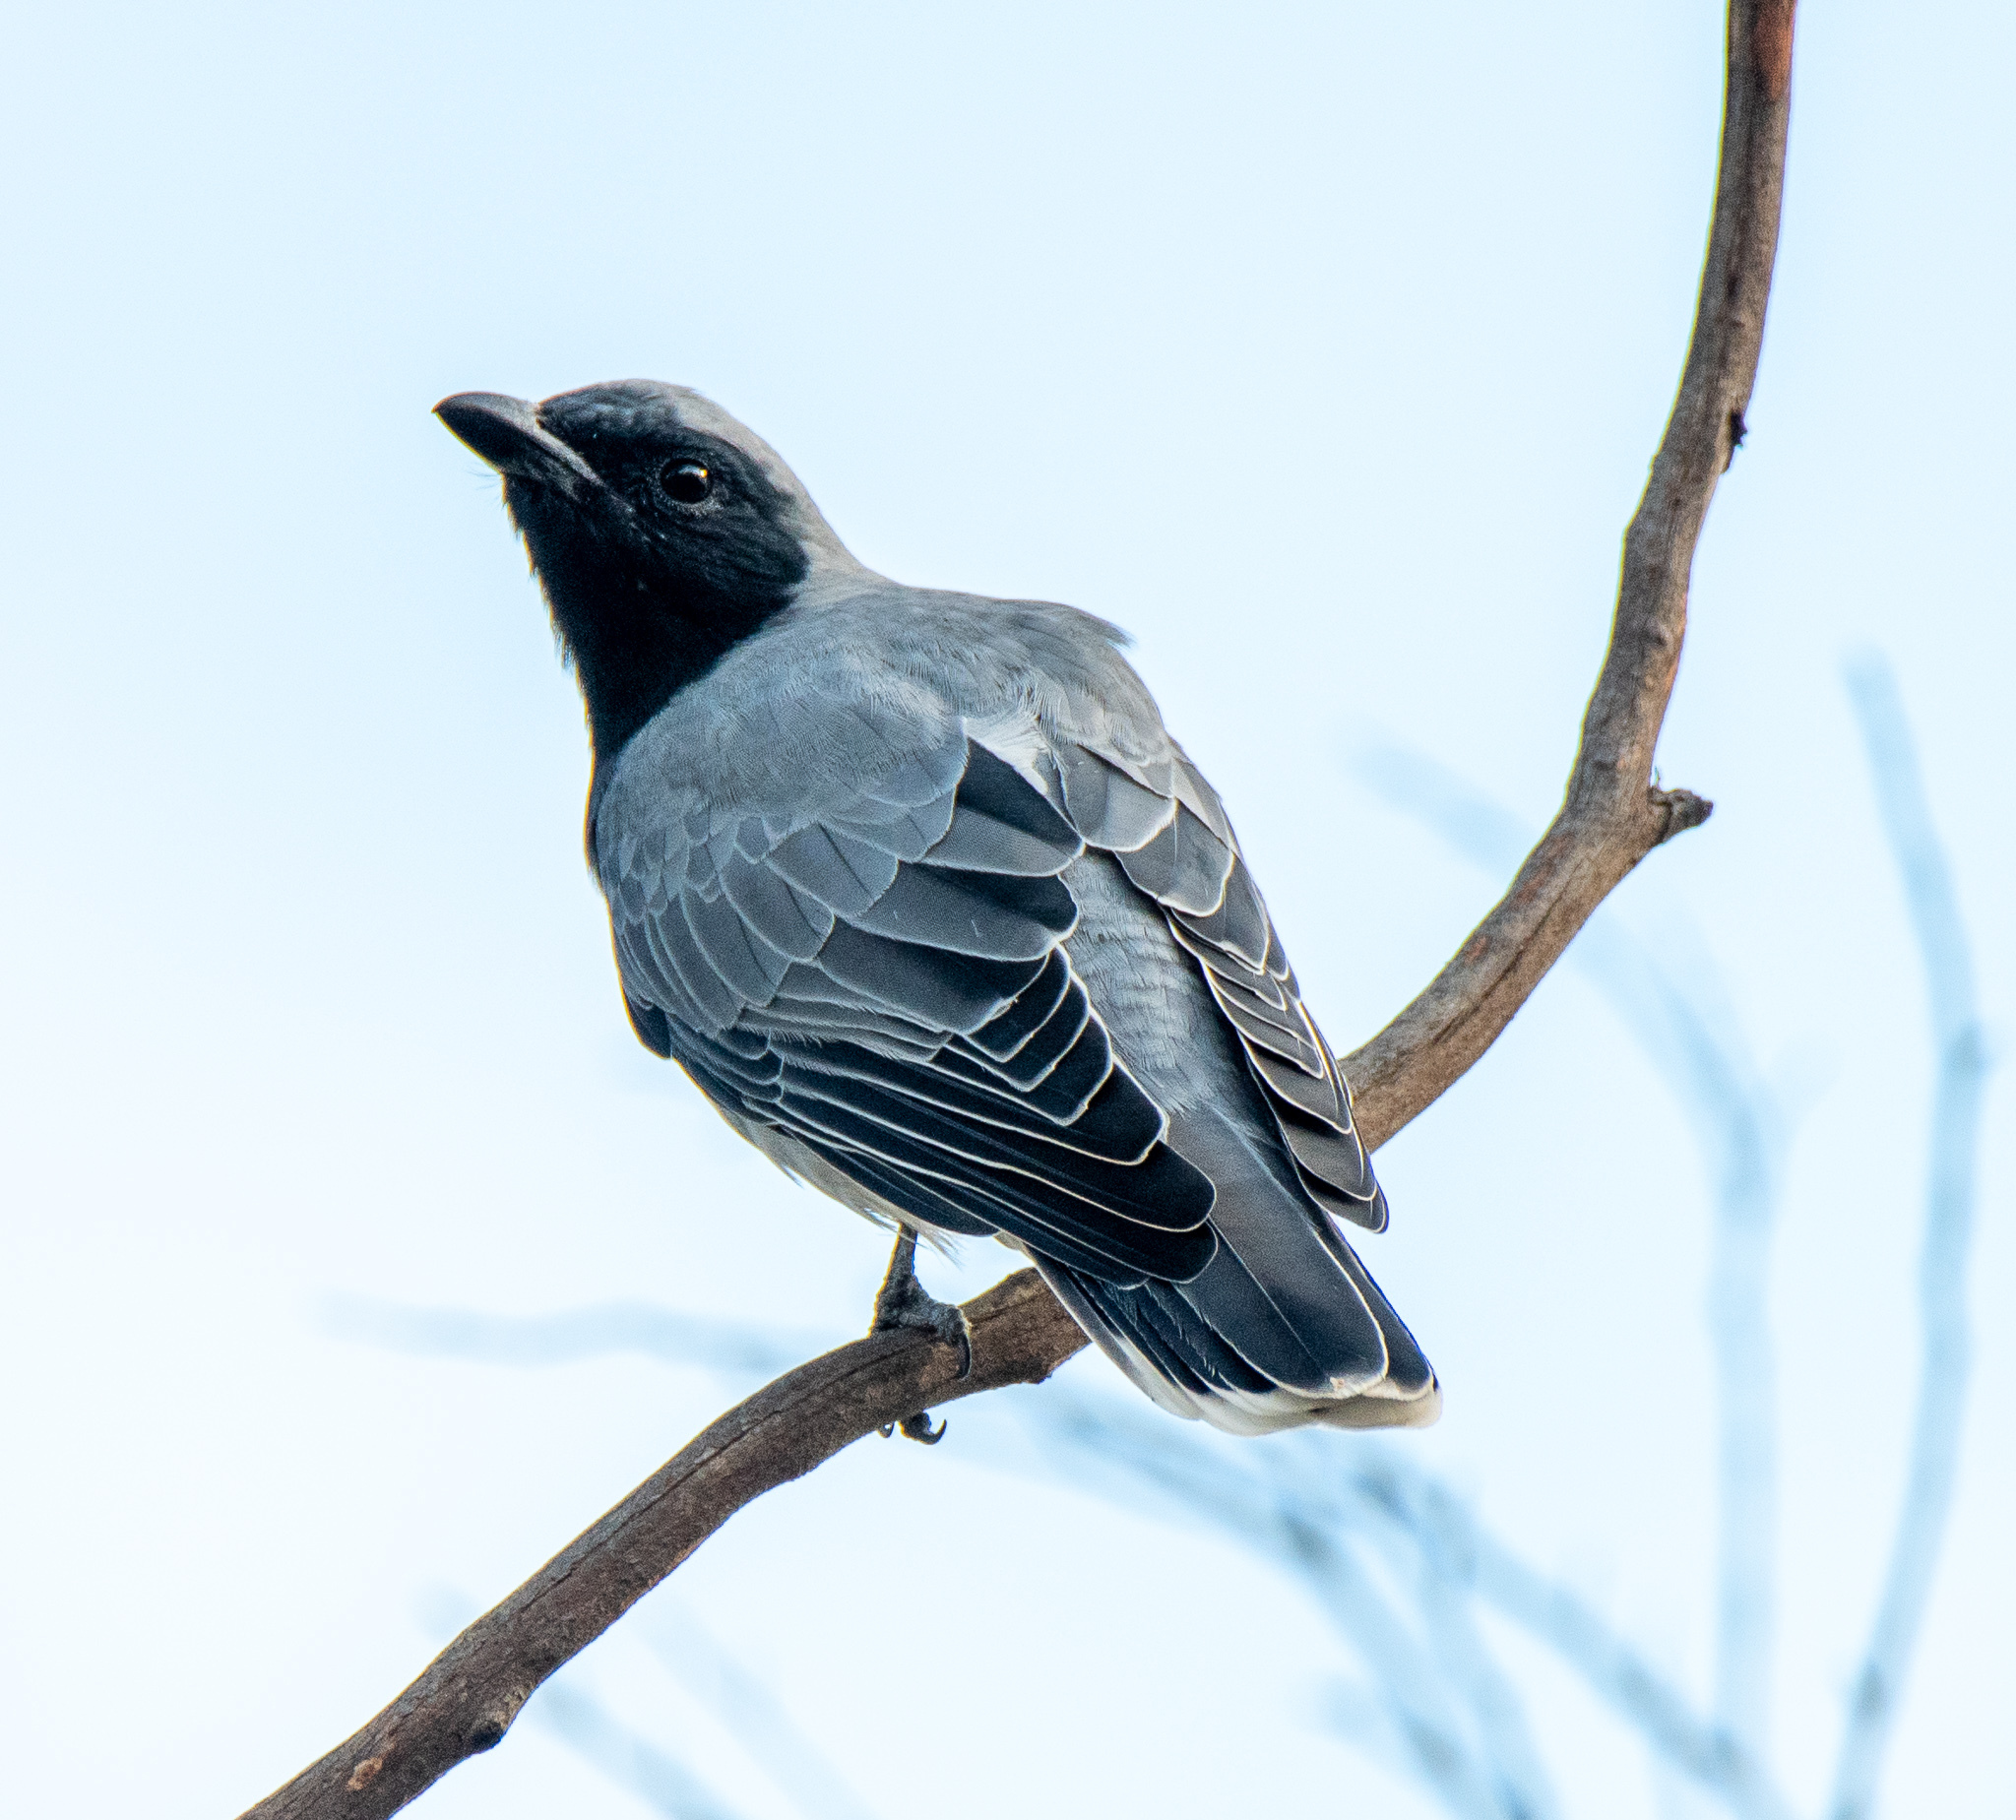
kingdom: Animalia
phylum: Chordata
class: Aves
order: Passeriformes
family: Campephagidae
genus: Coracina
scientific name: Coracina novaehollandiae
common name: Black-faced cuckooshrike
